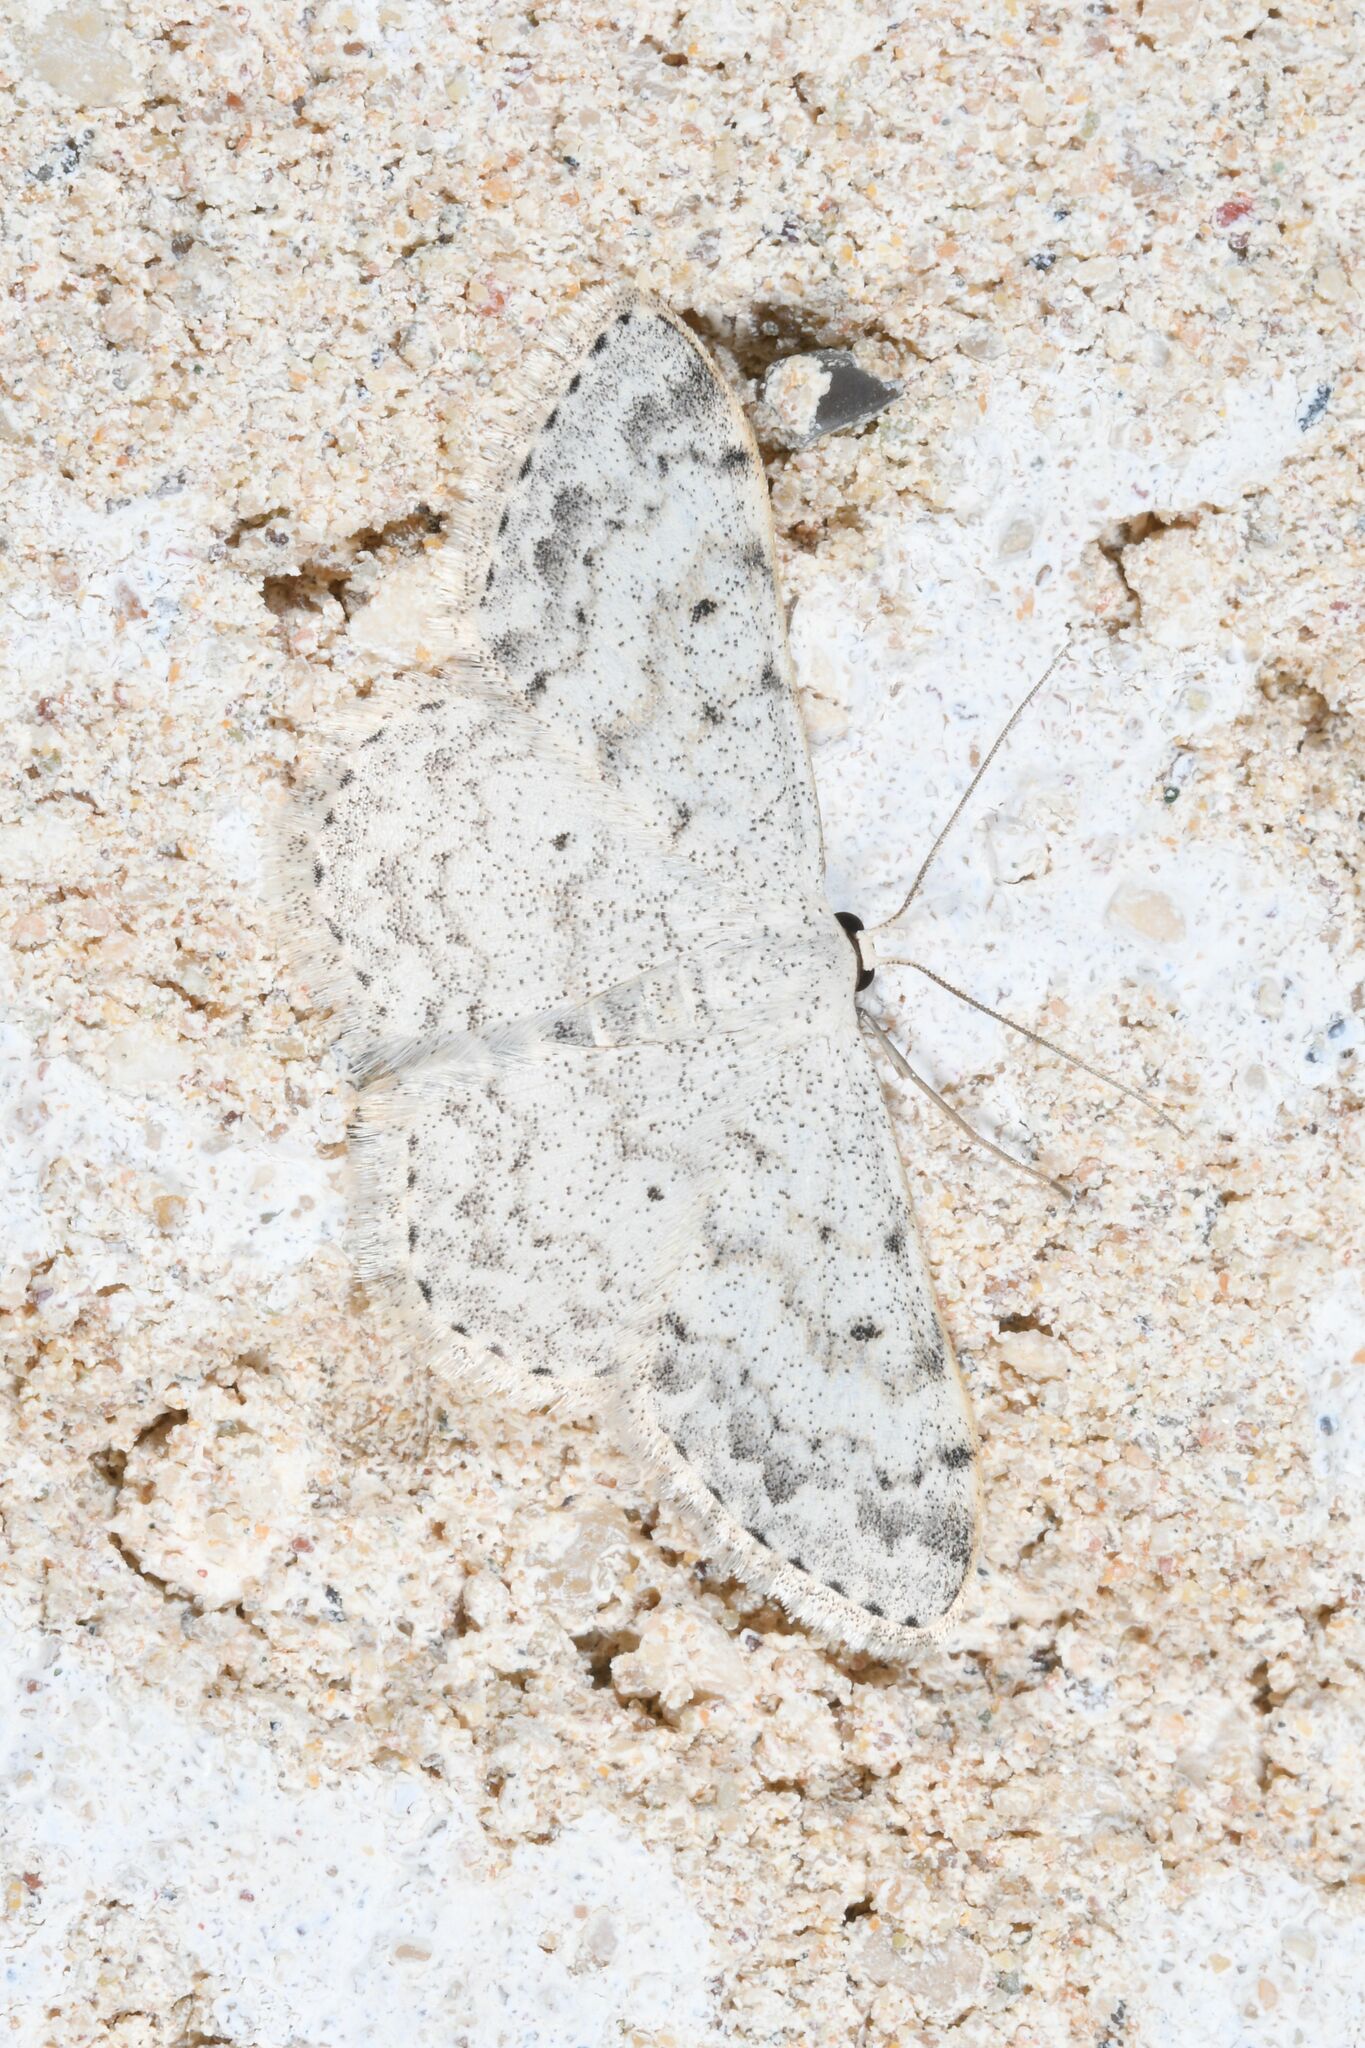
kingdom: Animalia
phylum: Arthropoda
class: Insecta
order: Lepidoptera
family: Geometridae
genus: Scopula
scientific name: Scopula marginepunctata
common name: Mullein wave
